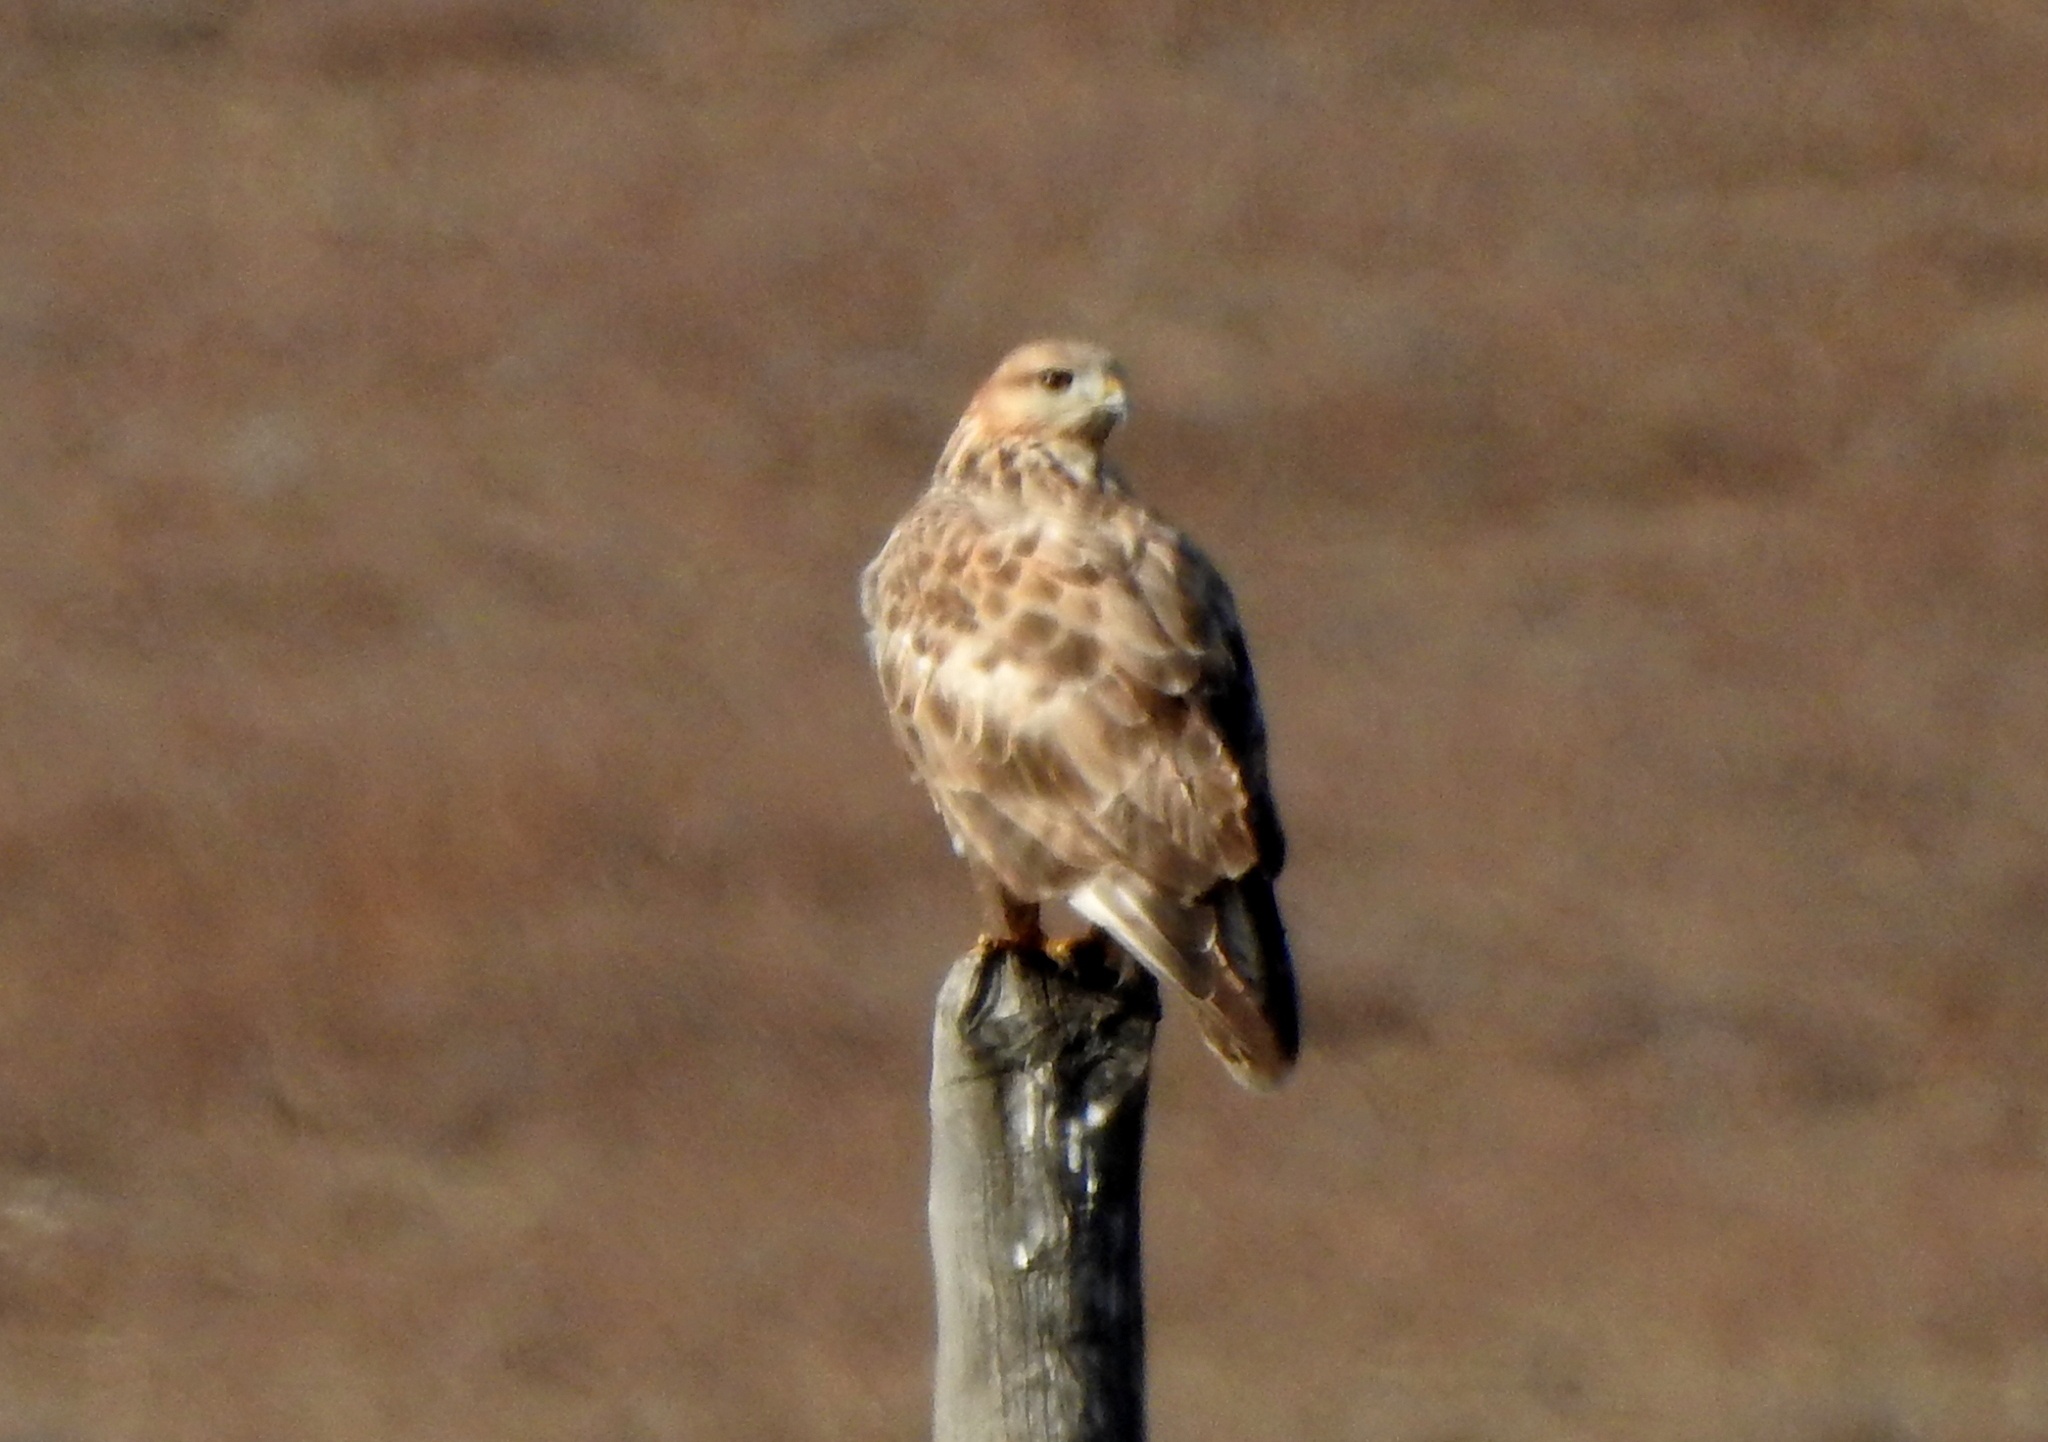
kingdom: Animalia
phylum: Chordata
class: Aves
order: Accipitriformes
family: Accipitridae
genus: Buteo
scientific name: Buteo hemilasius
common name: Upland buzzard
